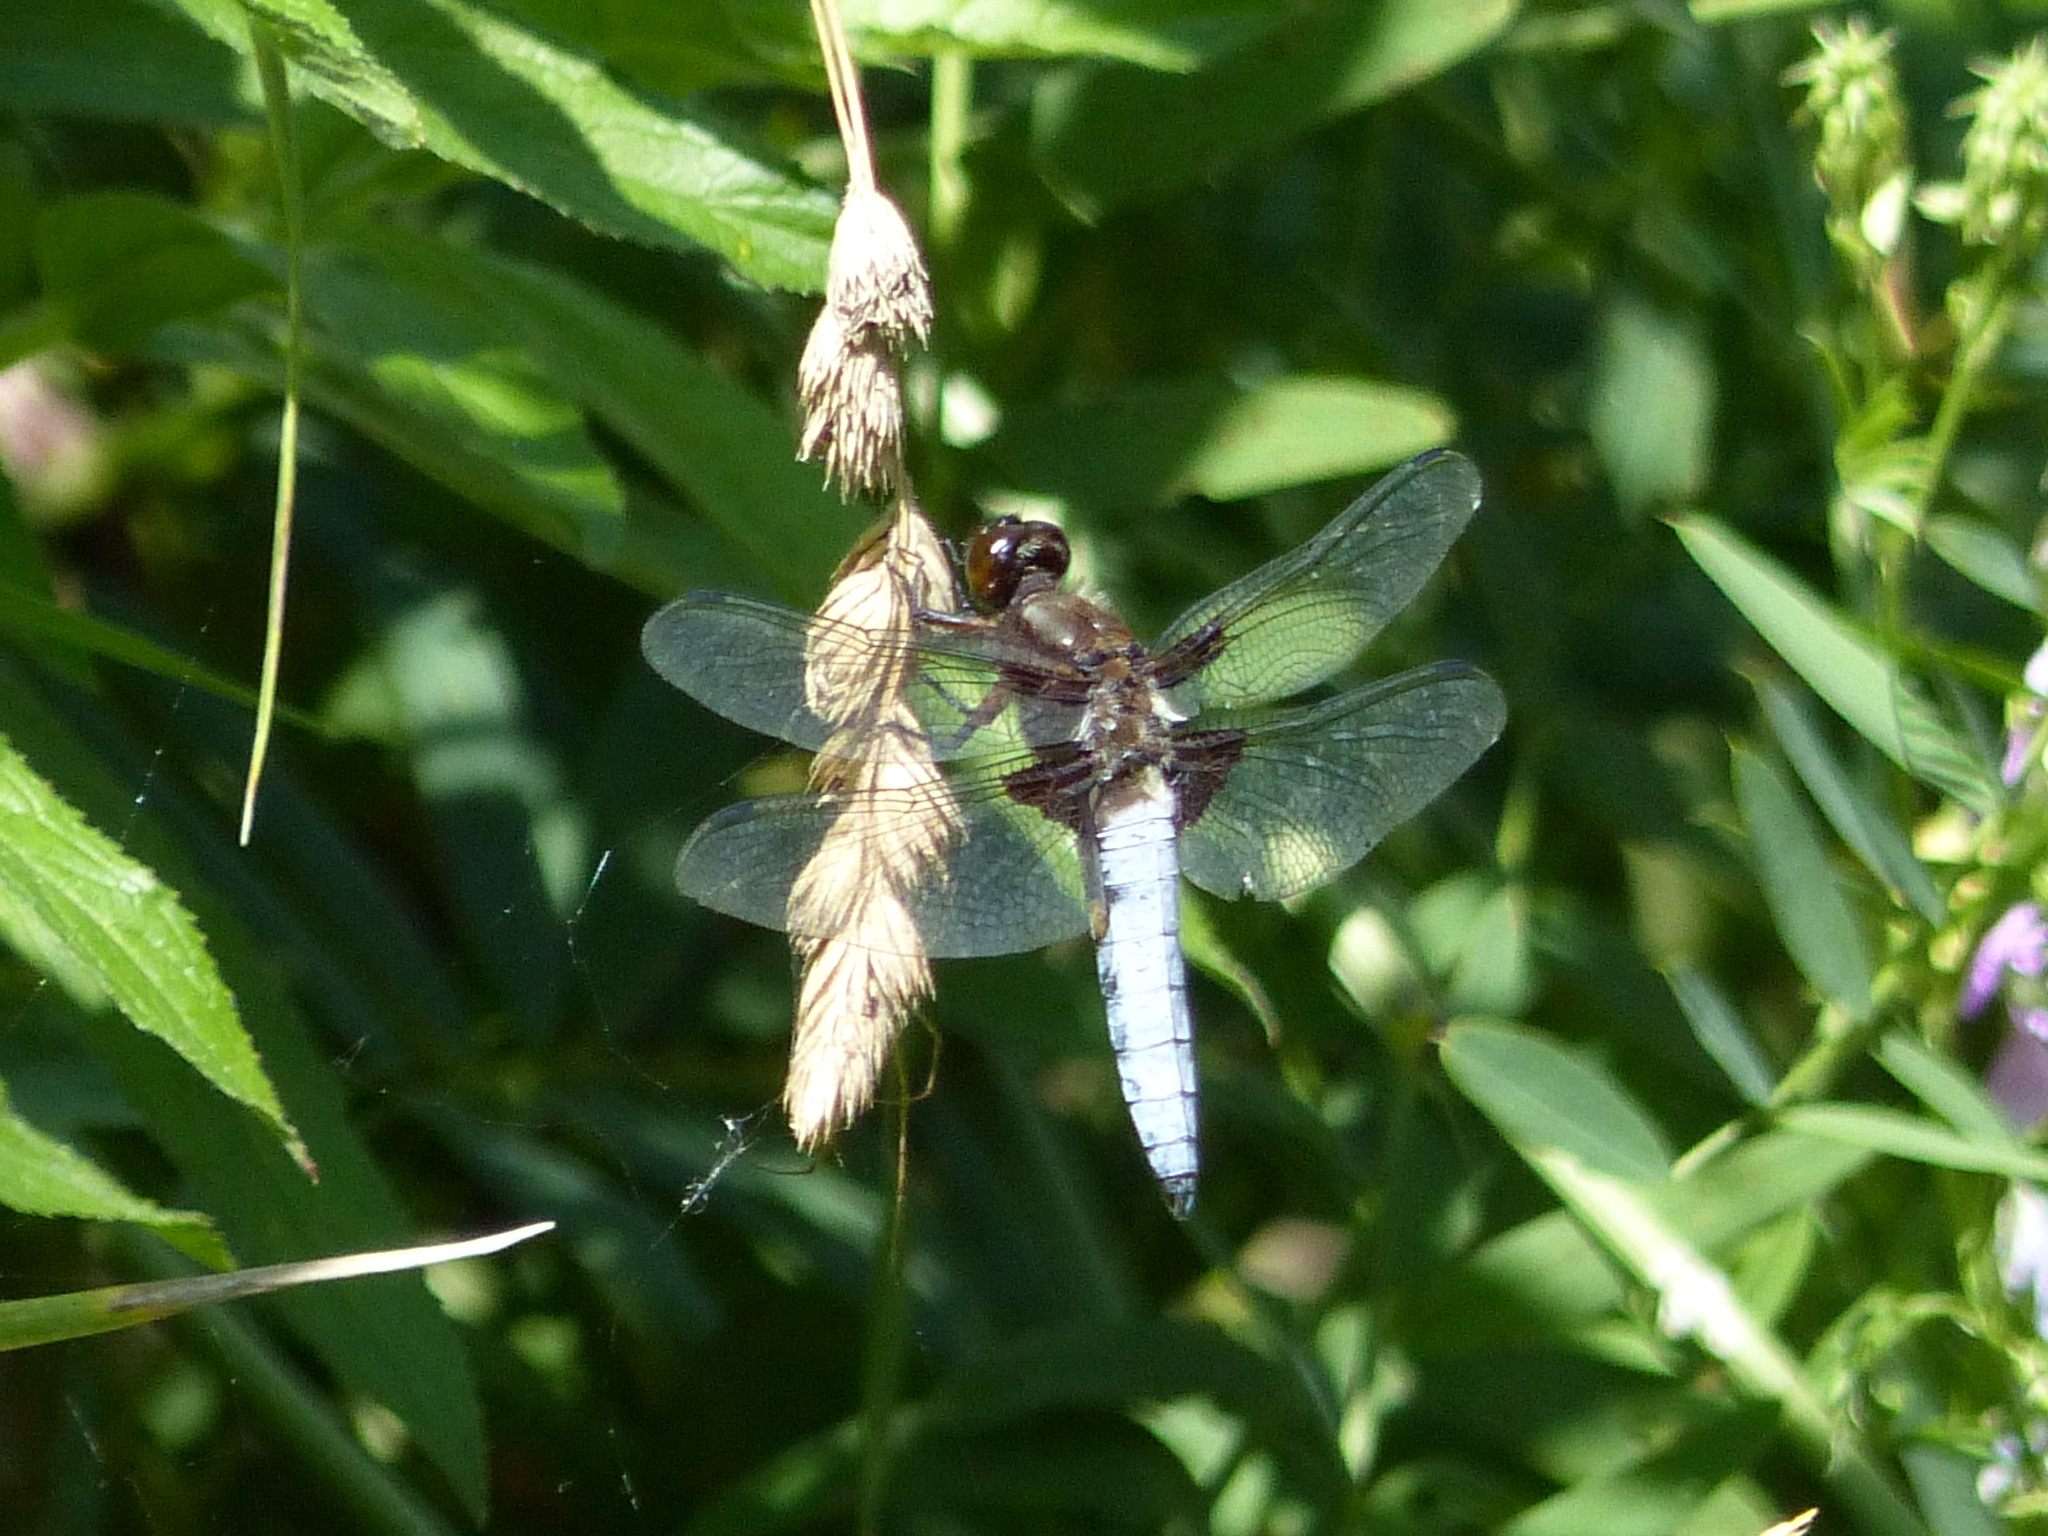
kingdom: Animalia
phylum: Arthropoda
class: Insecta
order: Odonata
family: Libellulidae
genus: Libellula
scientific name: Libellula depressa
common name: Broad-bodied chaser
